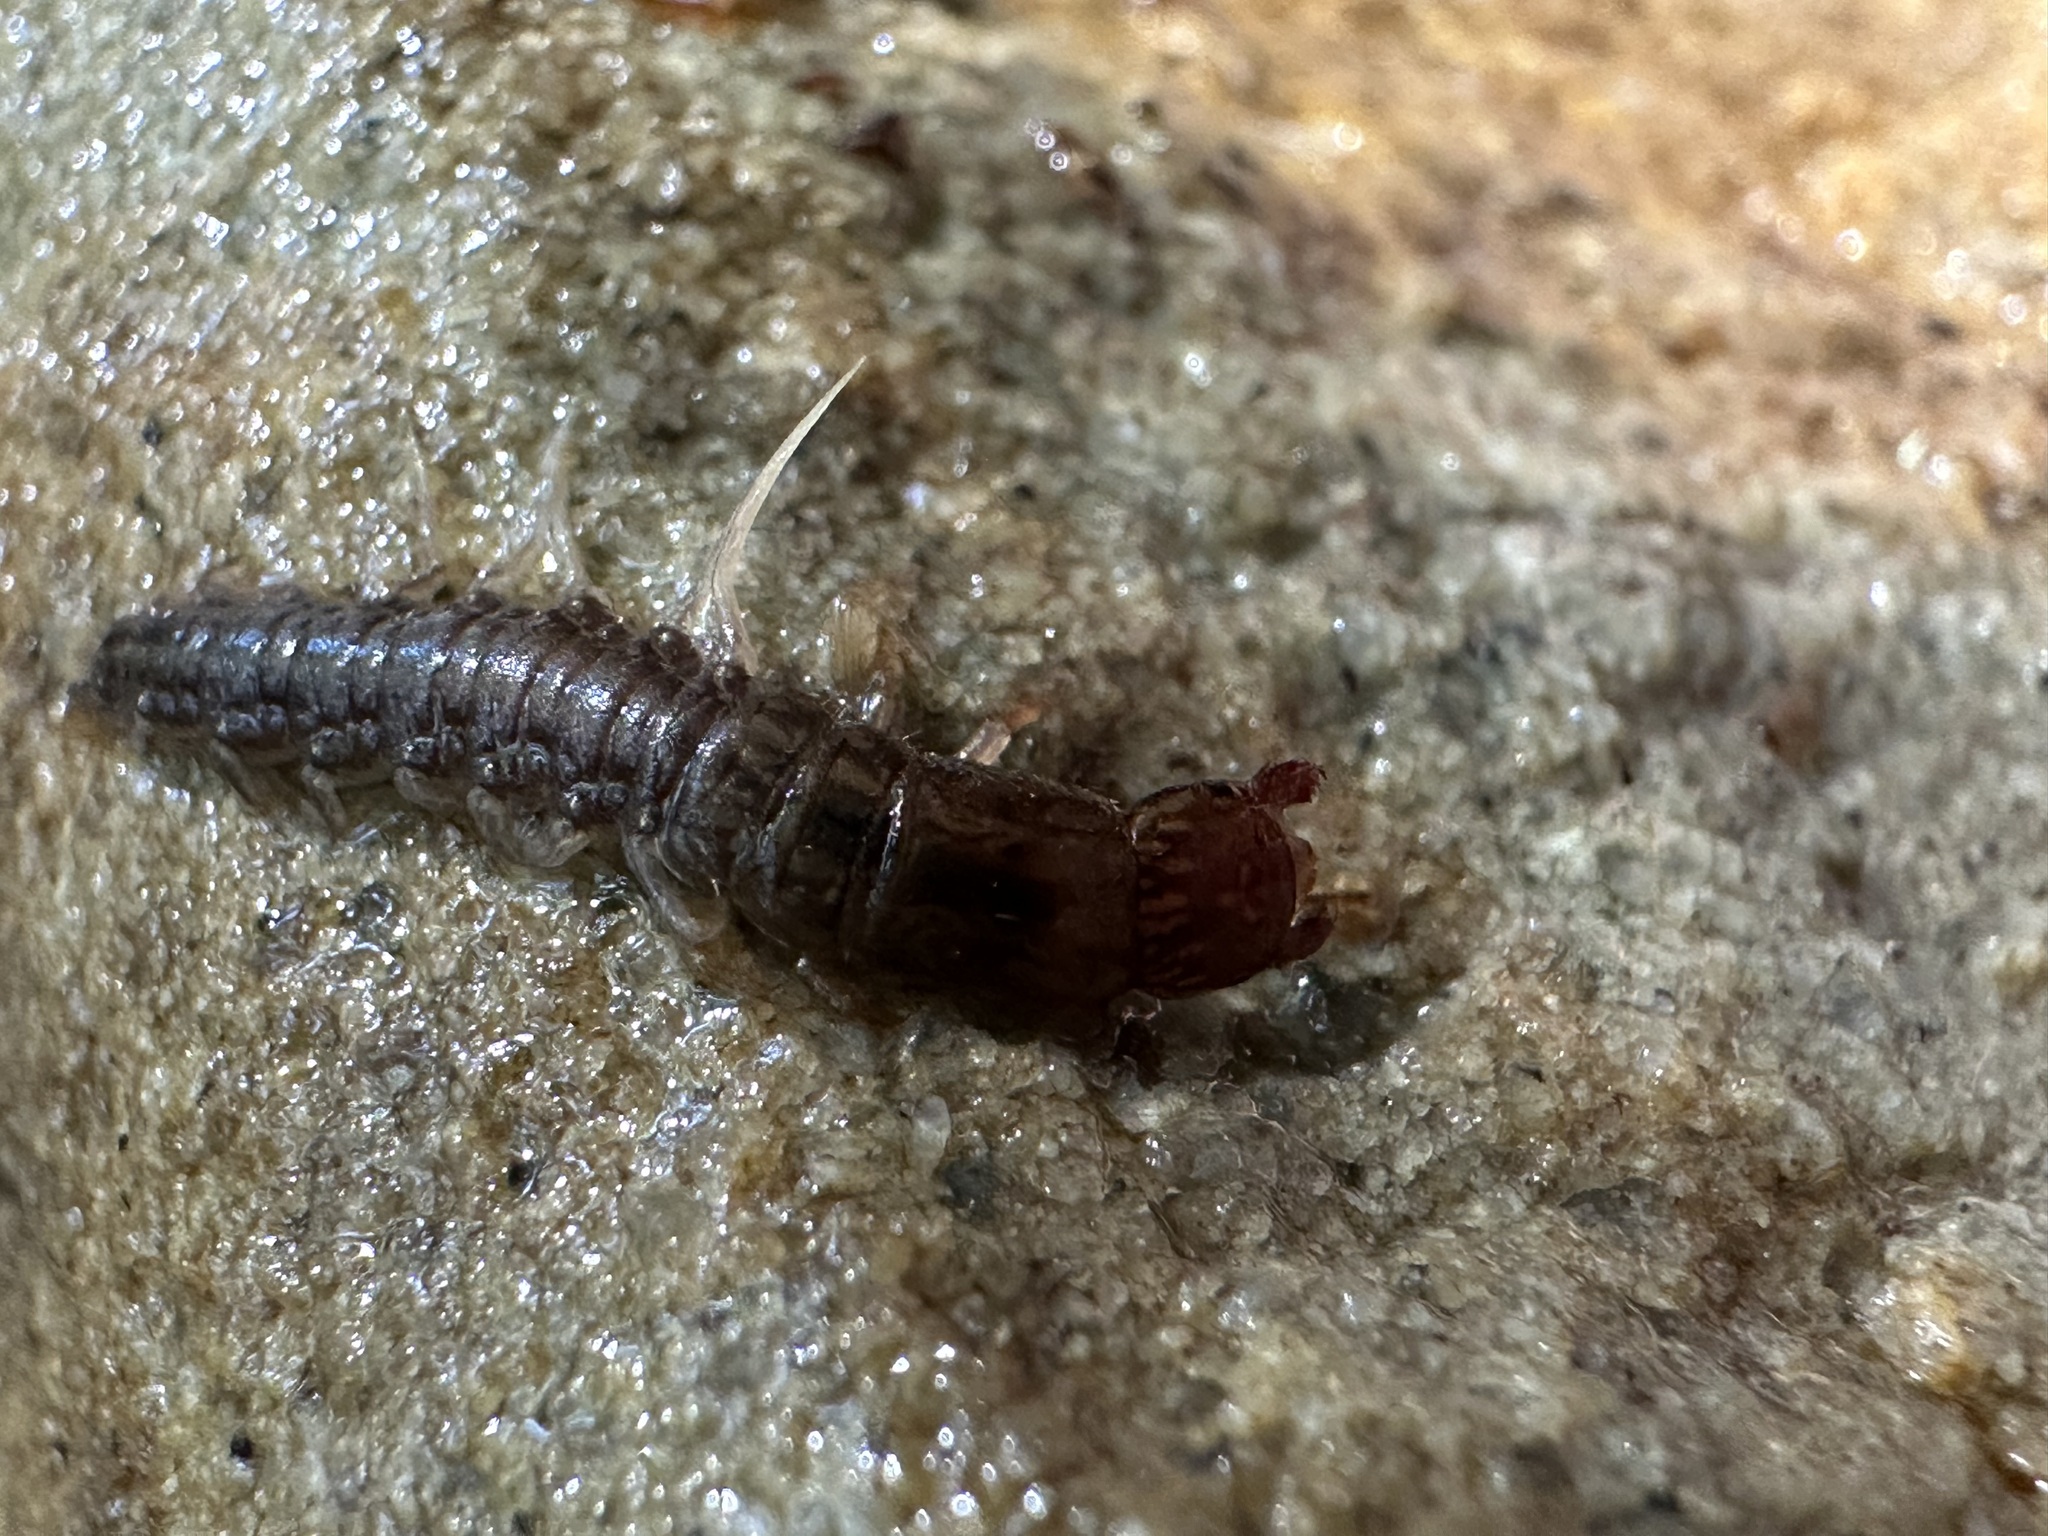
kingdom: Animalia
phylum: Arthropoda
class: Insecta
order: Megaloptera
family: Corydalidae
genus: Neohermes
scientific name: Neohermes filicornis
